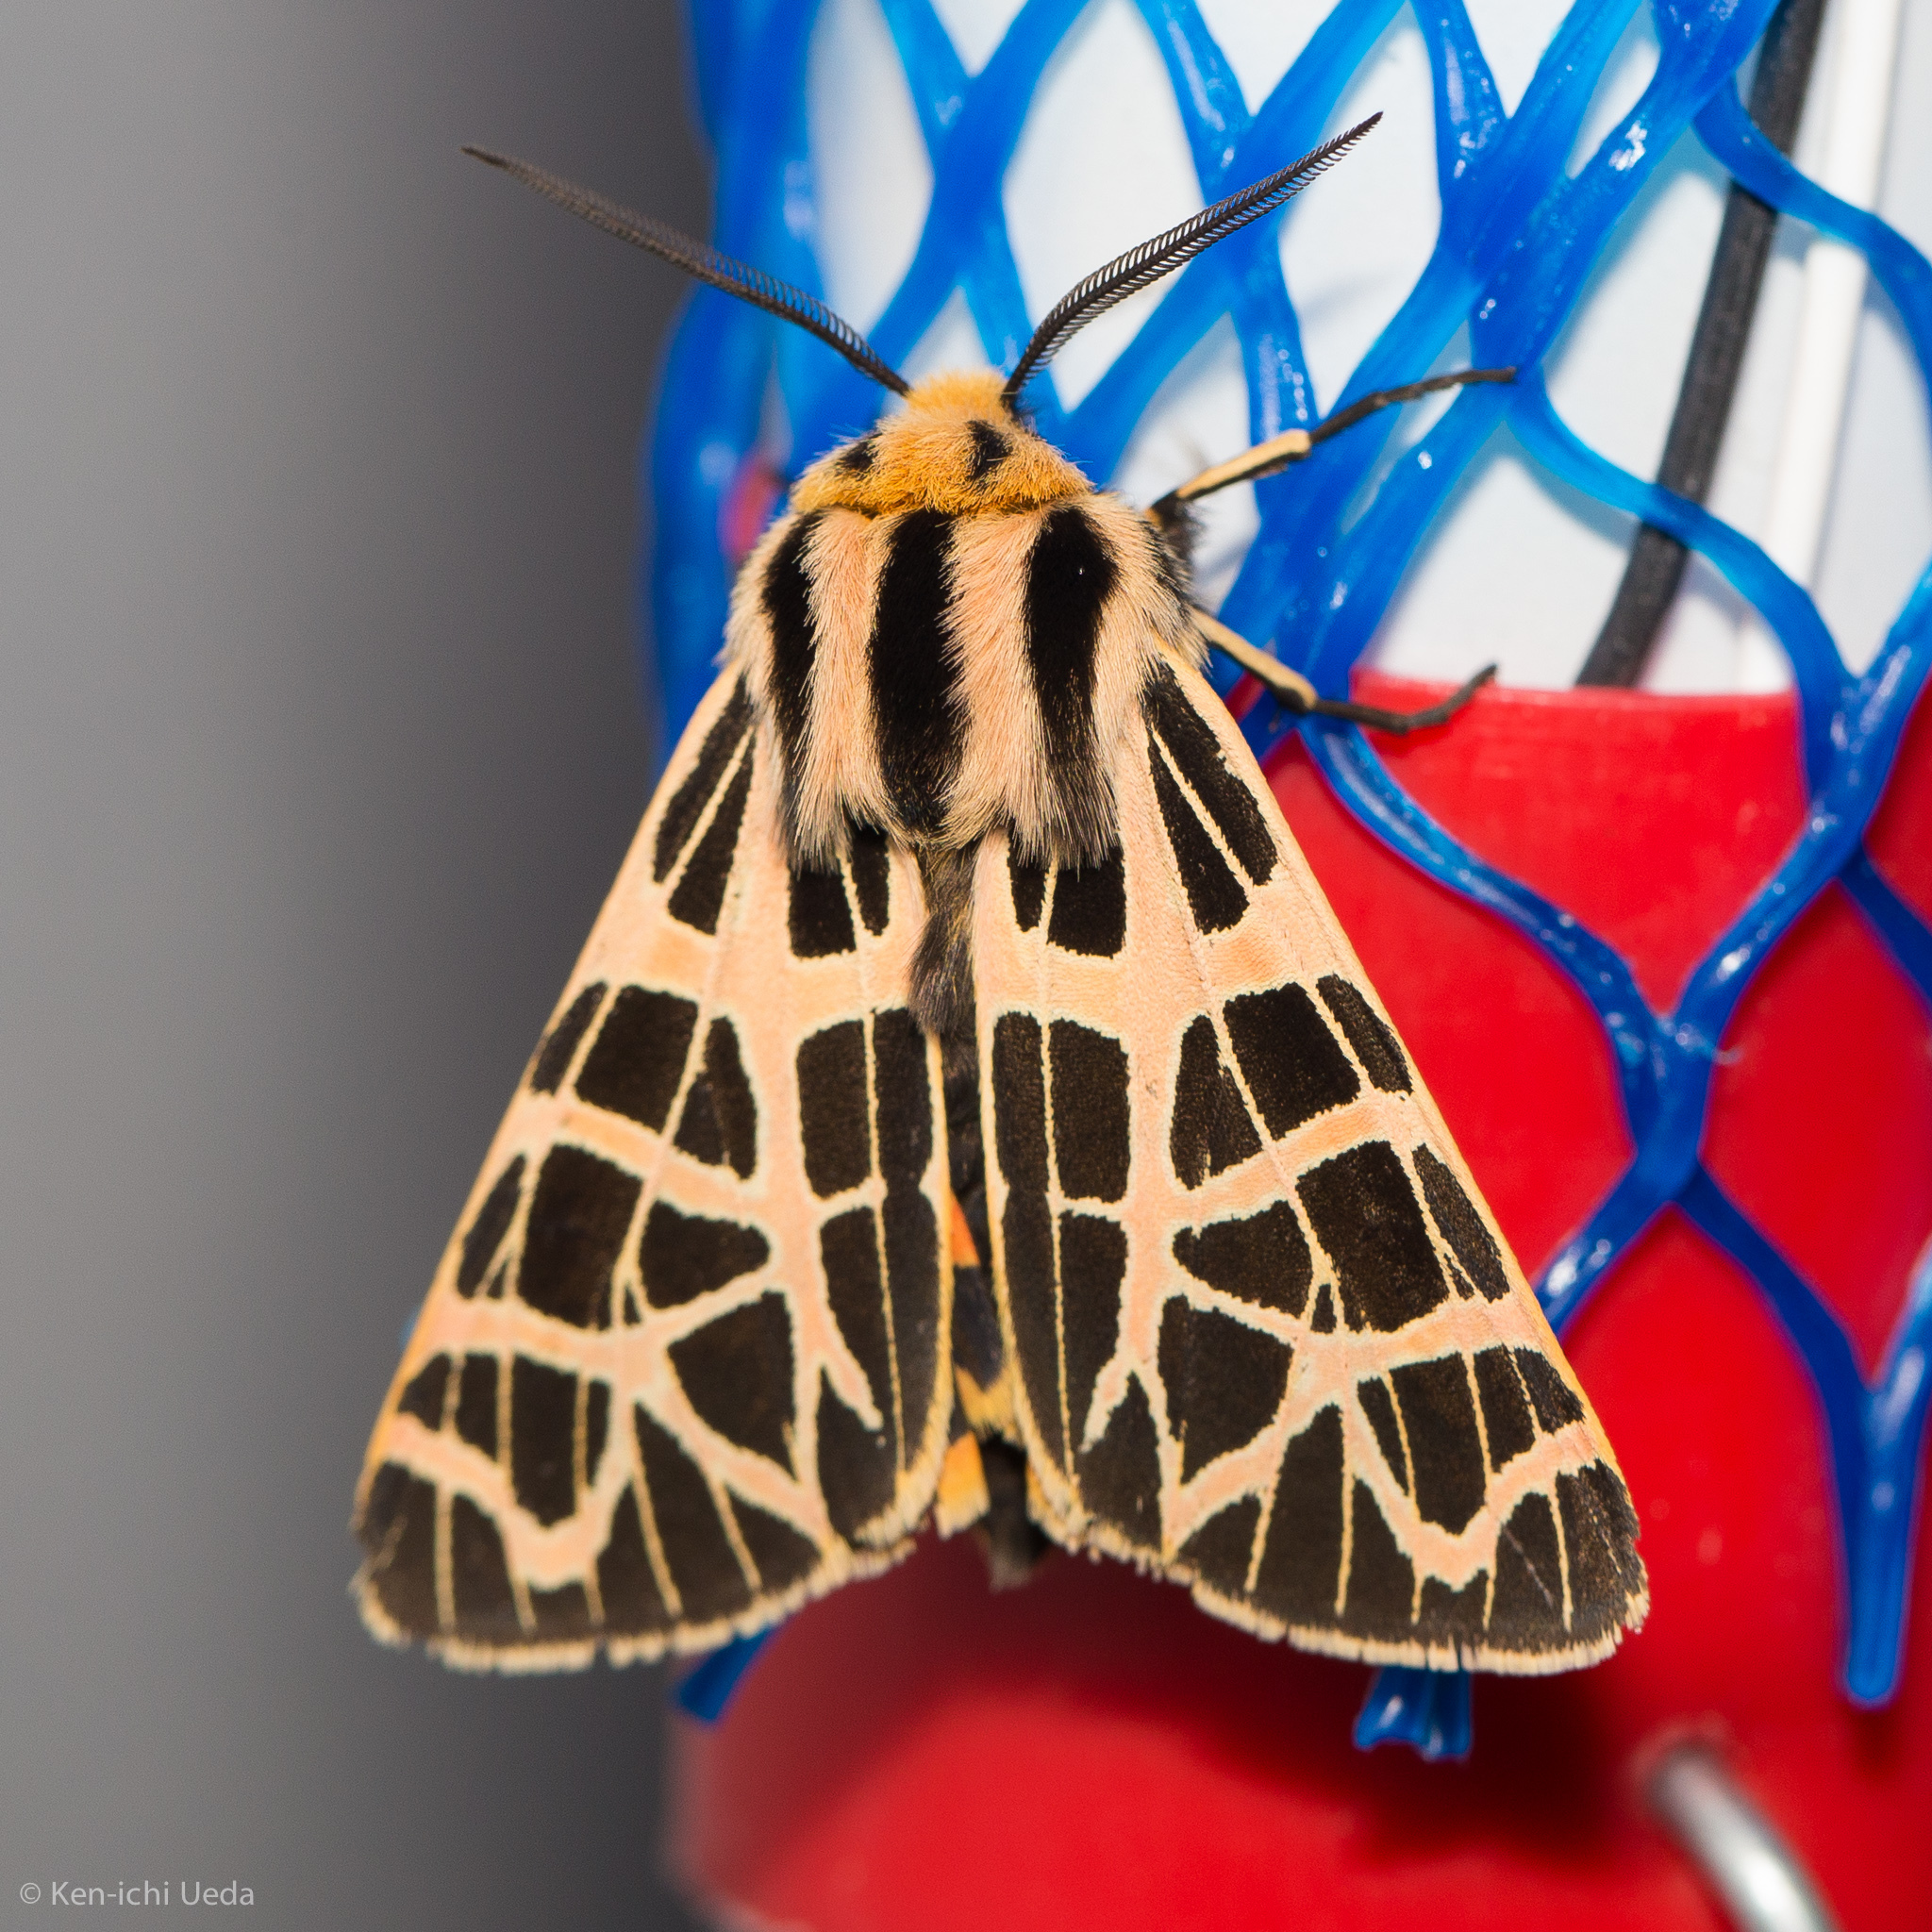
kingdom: Animalia
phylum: Arthropoda
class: Insecta
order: Lepidoptera
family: Erebidae
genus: Apantesis
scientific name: Apantesis
